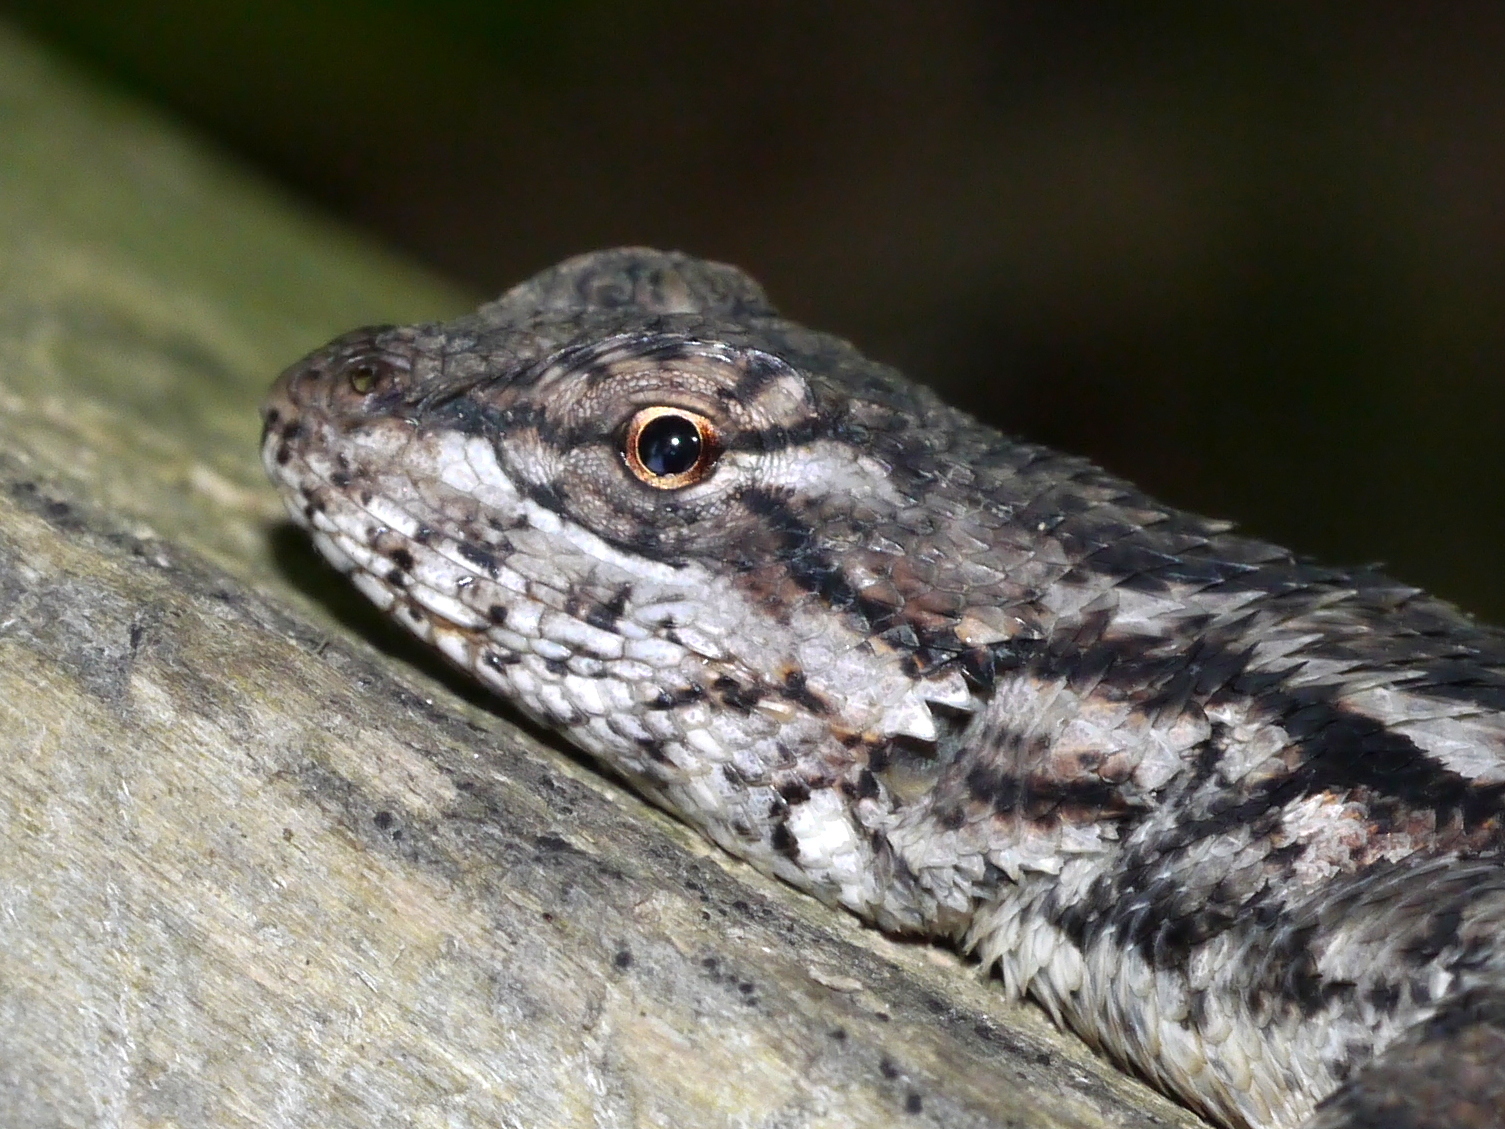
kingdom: Animalia
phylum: Chordata
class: Squamata
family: Phrynosomatidae
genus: Sceloporus
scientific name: Sceloporus undulatus
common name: Eastern fence lizard
